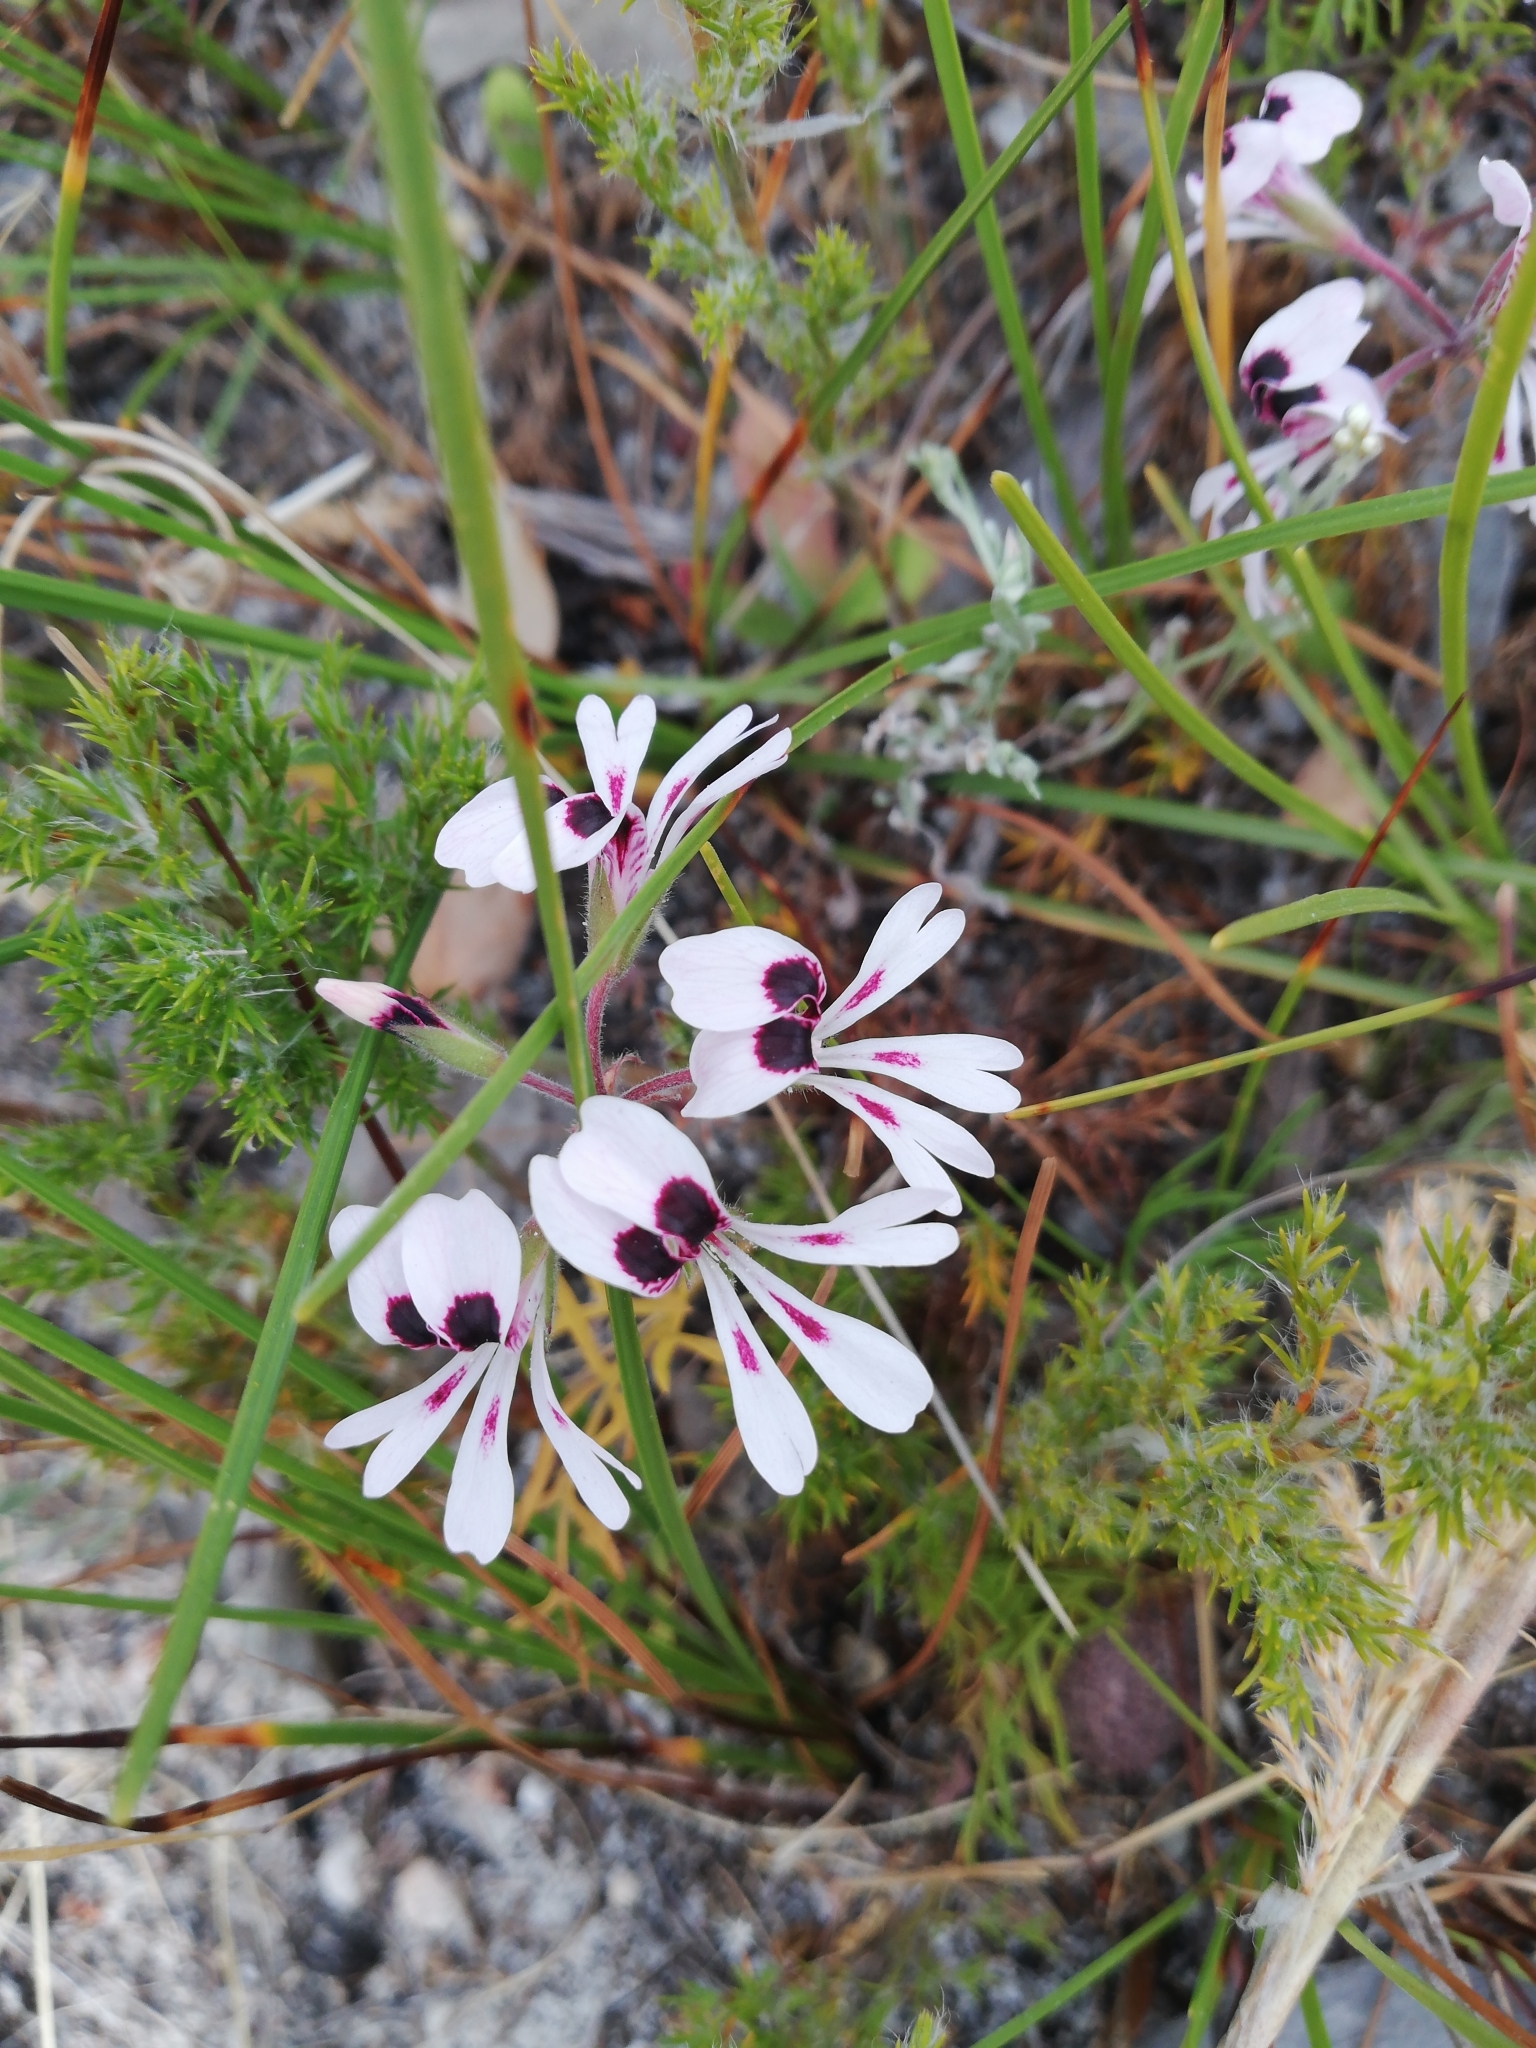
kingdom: Plantae
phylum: Tracheophyta
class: Magnoliopsida
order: Geraniales
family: Geraniaceae
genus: Pelargonium
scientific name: Pelargonium psammophilum
